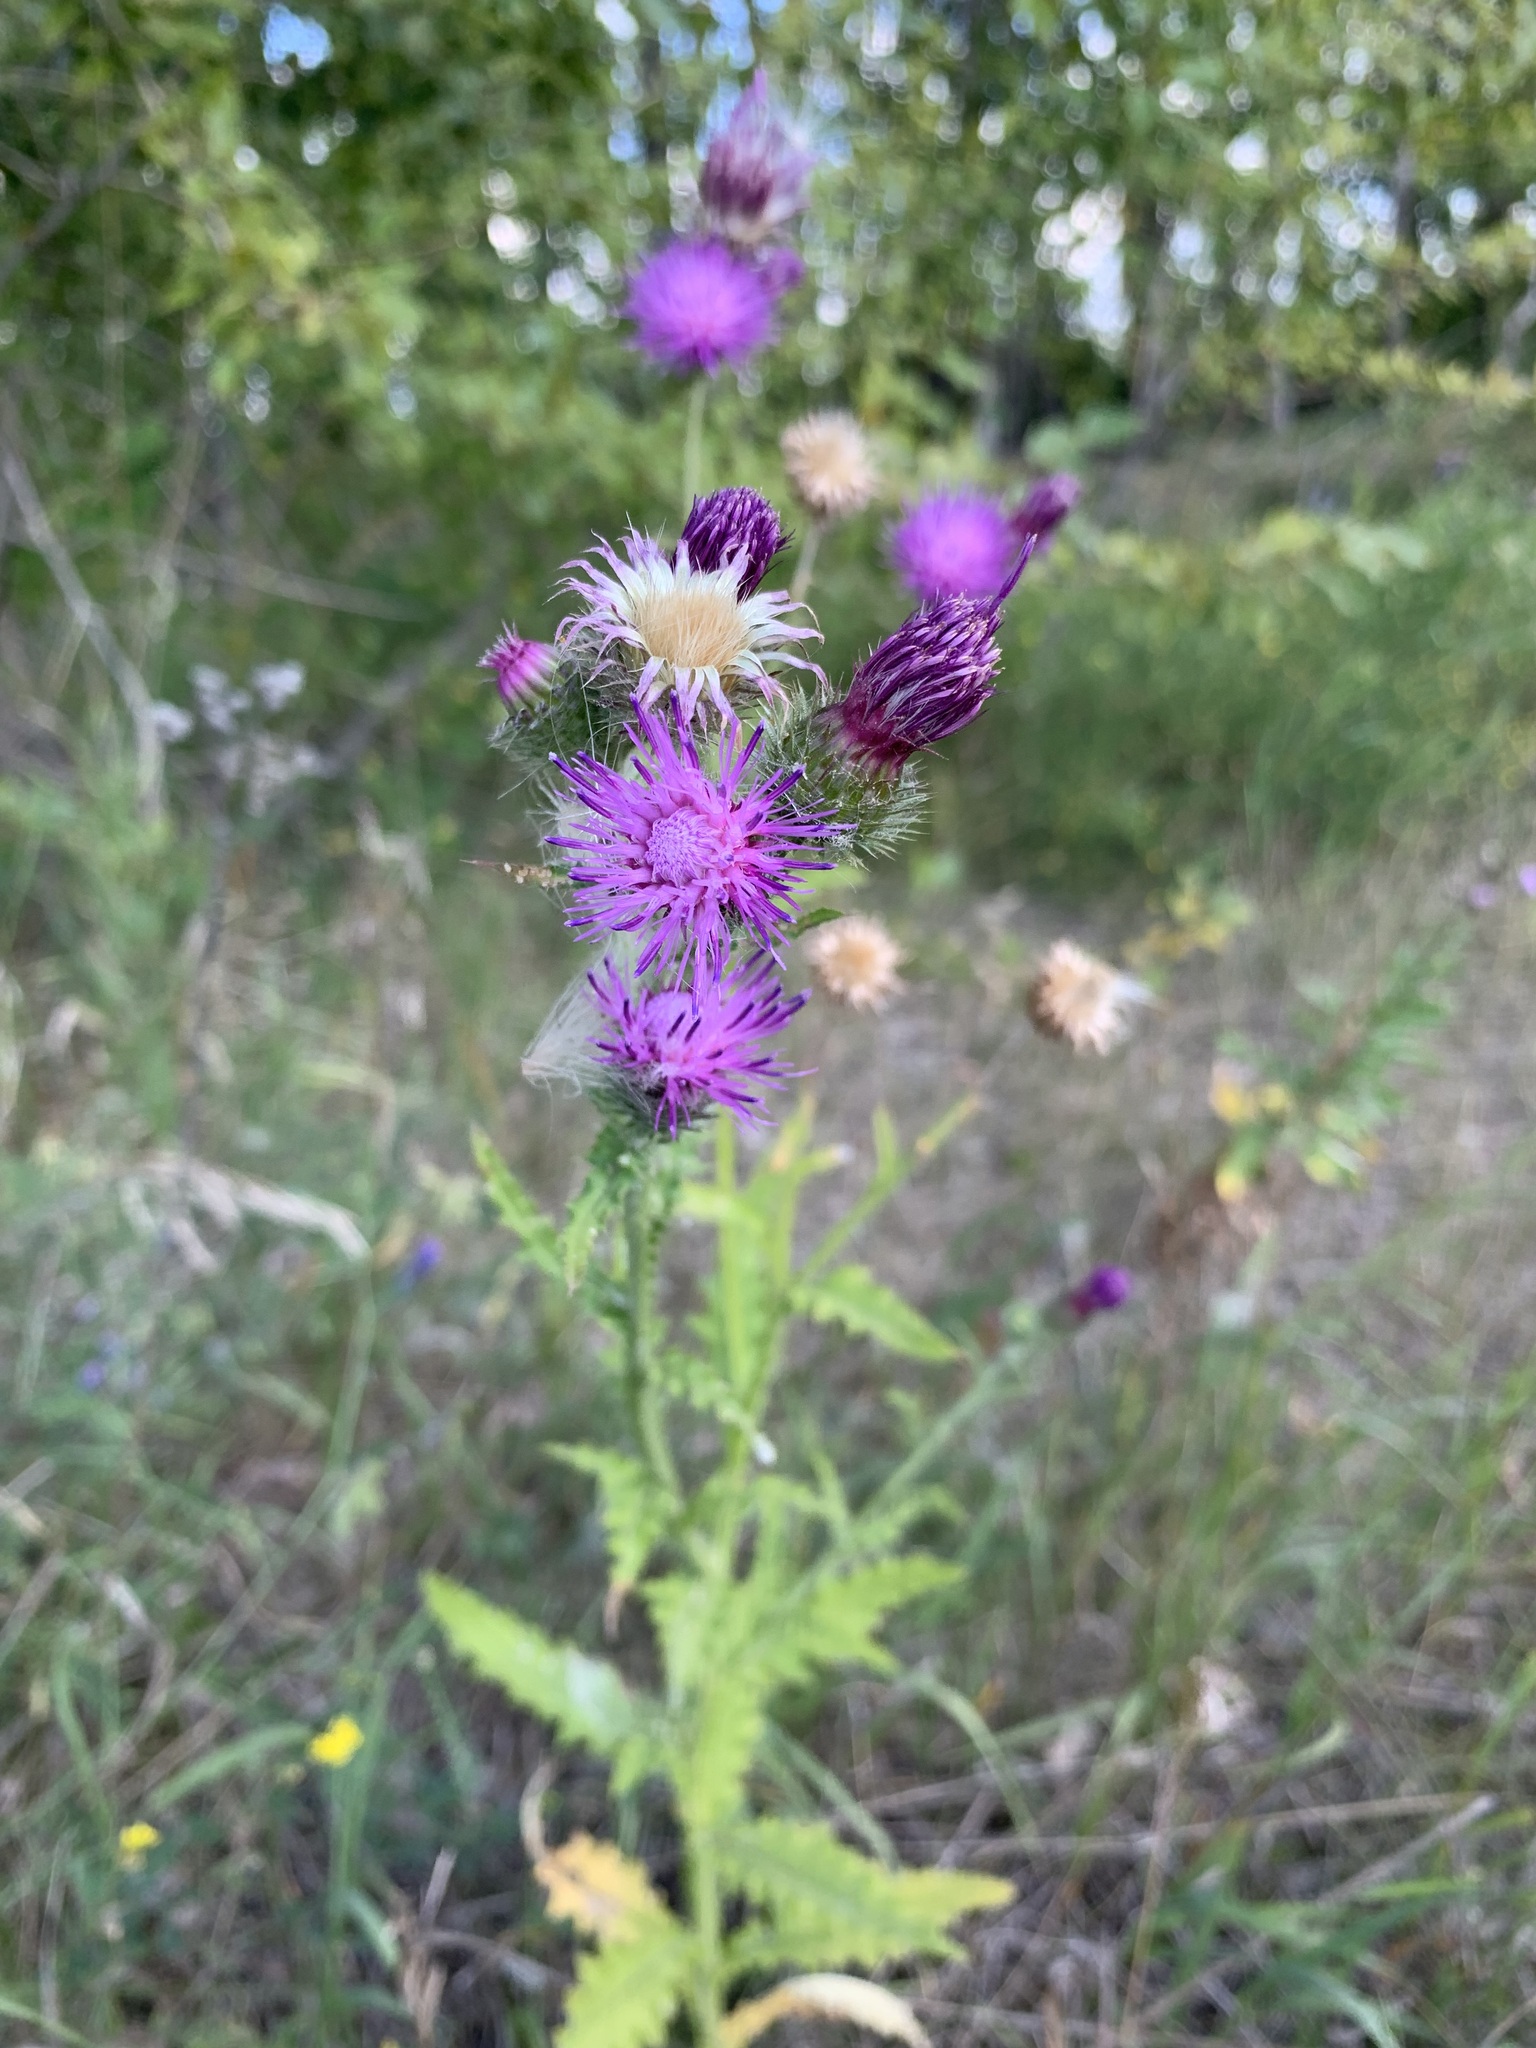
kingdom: Plantae
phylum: Tracheophyta
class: Magnoliopsida
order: Asterales
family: Asteraceae
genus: Carduus
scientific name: Carduus crispus
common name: Welted thistle
